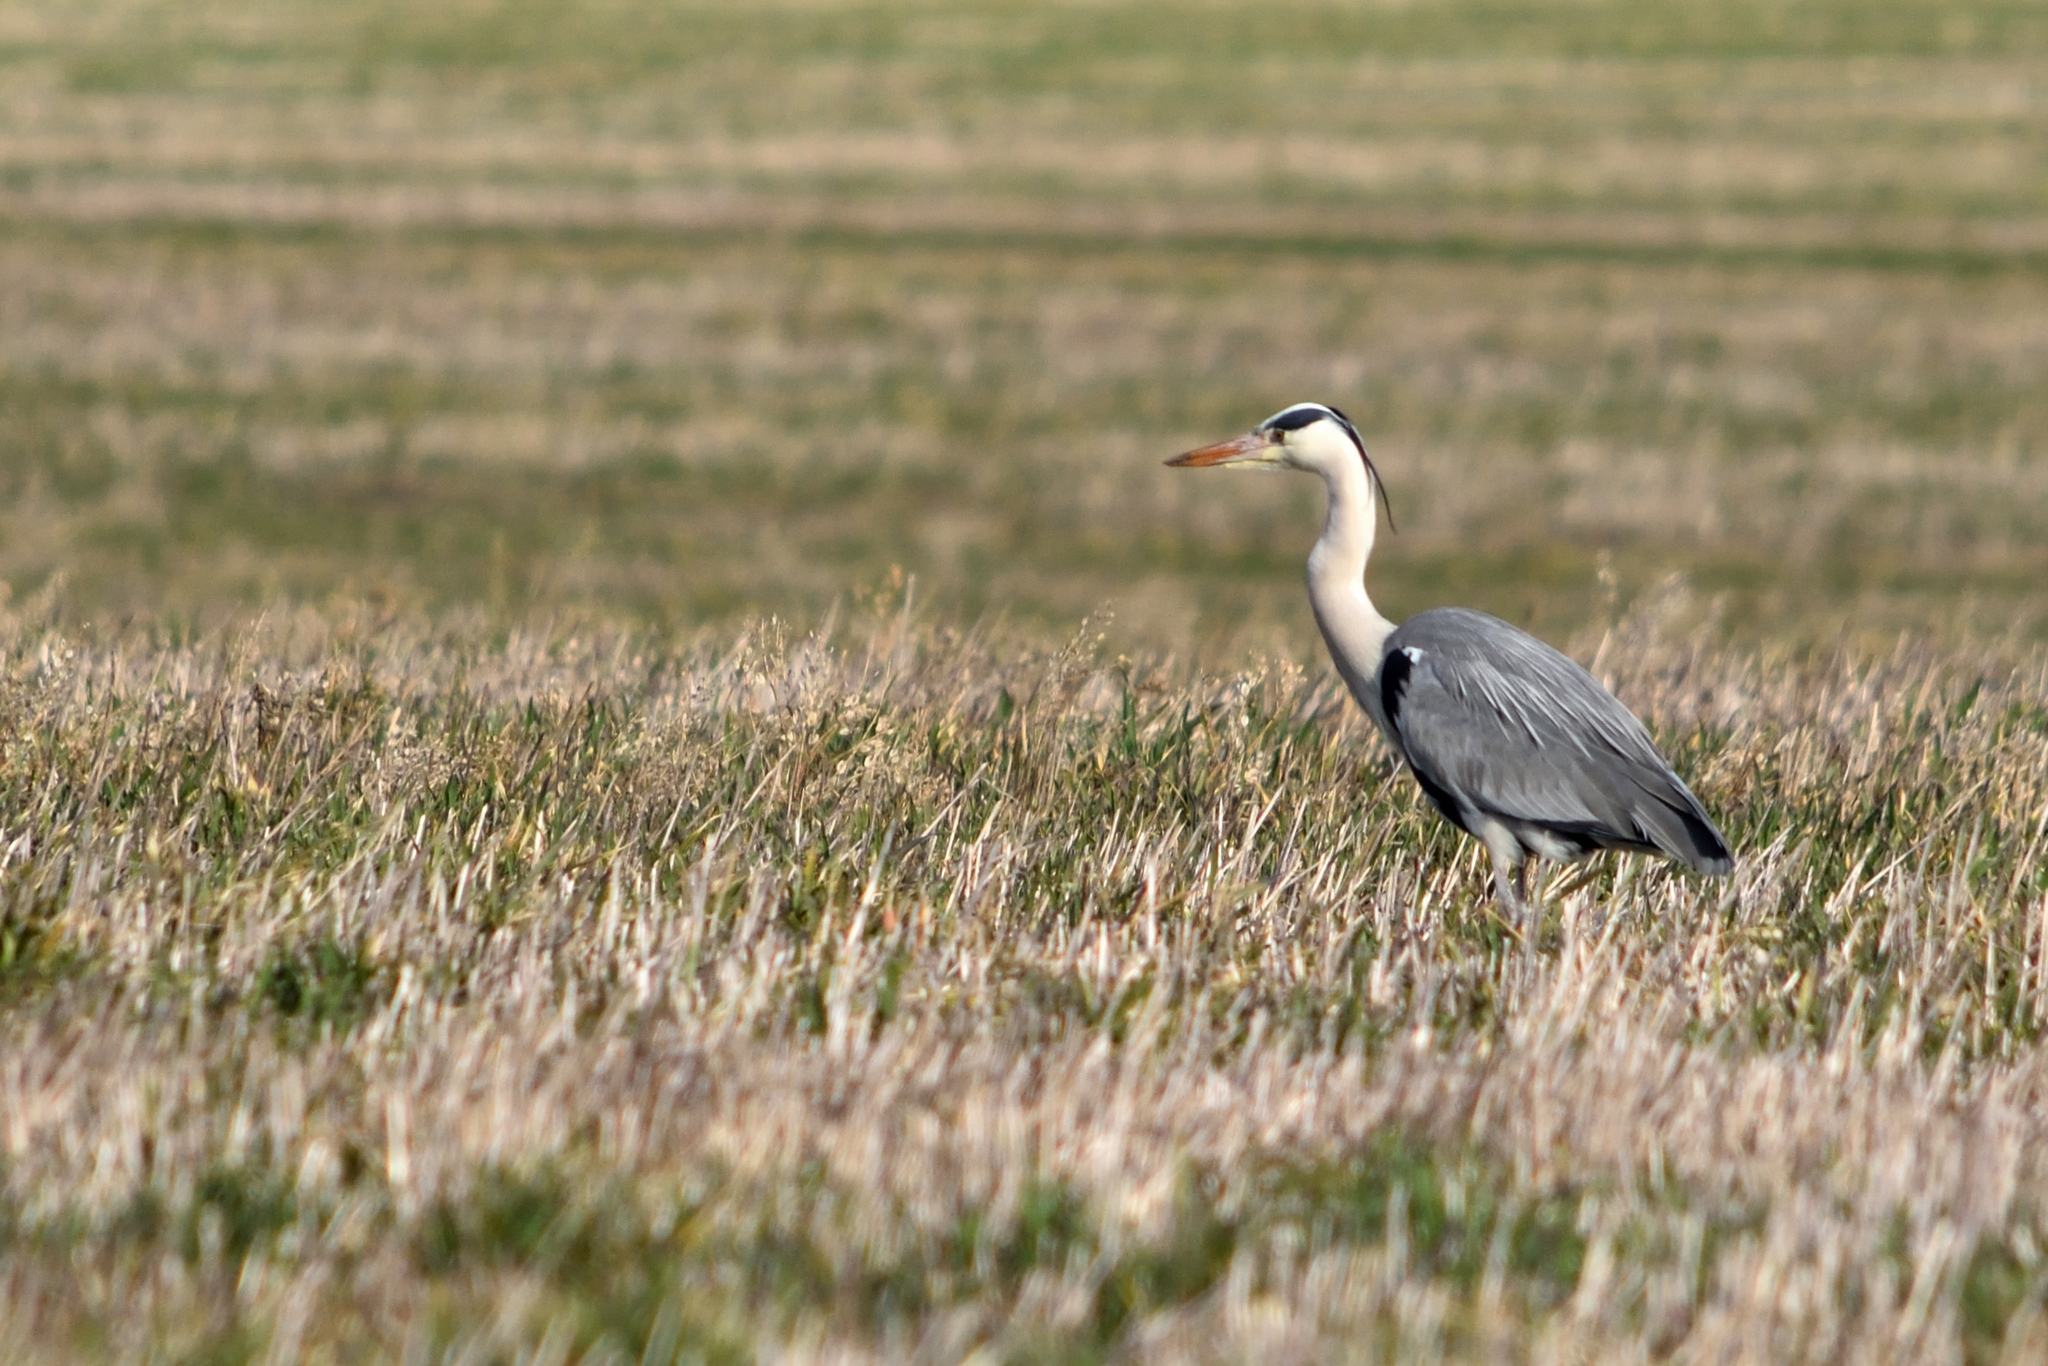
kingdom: Animalia
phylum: Chordata
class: Aves
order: Pelecaniformes
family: Ardeidae
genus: Ardea
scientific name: Ardea cinerea
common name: Grey heron
